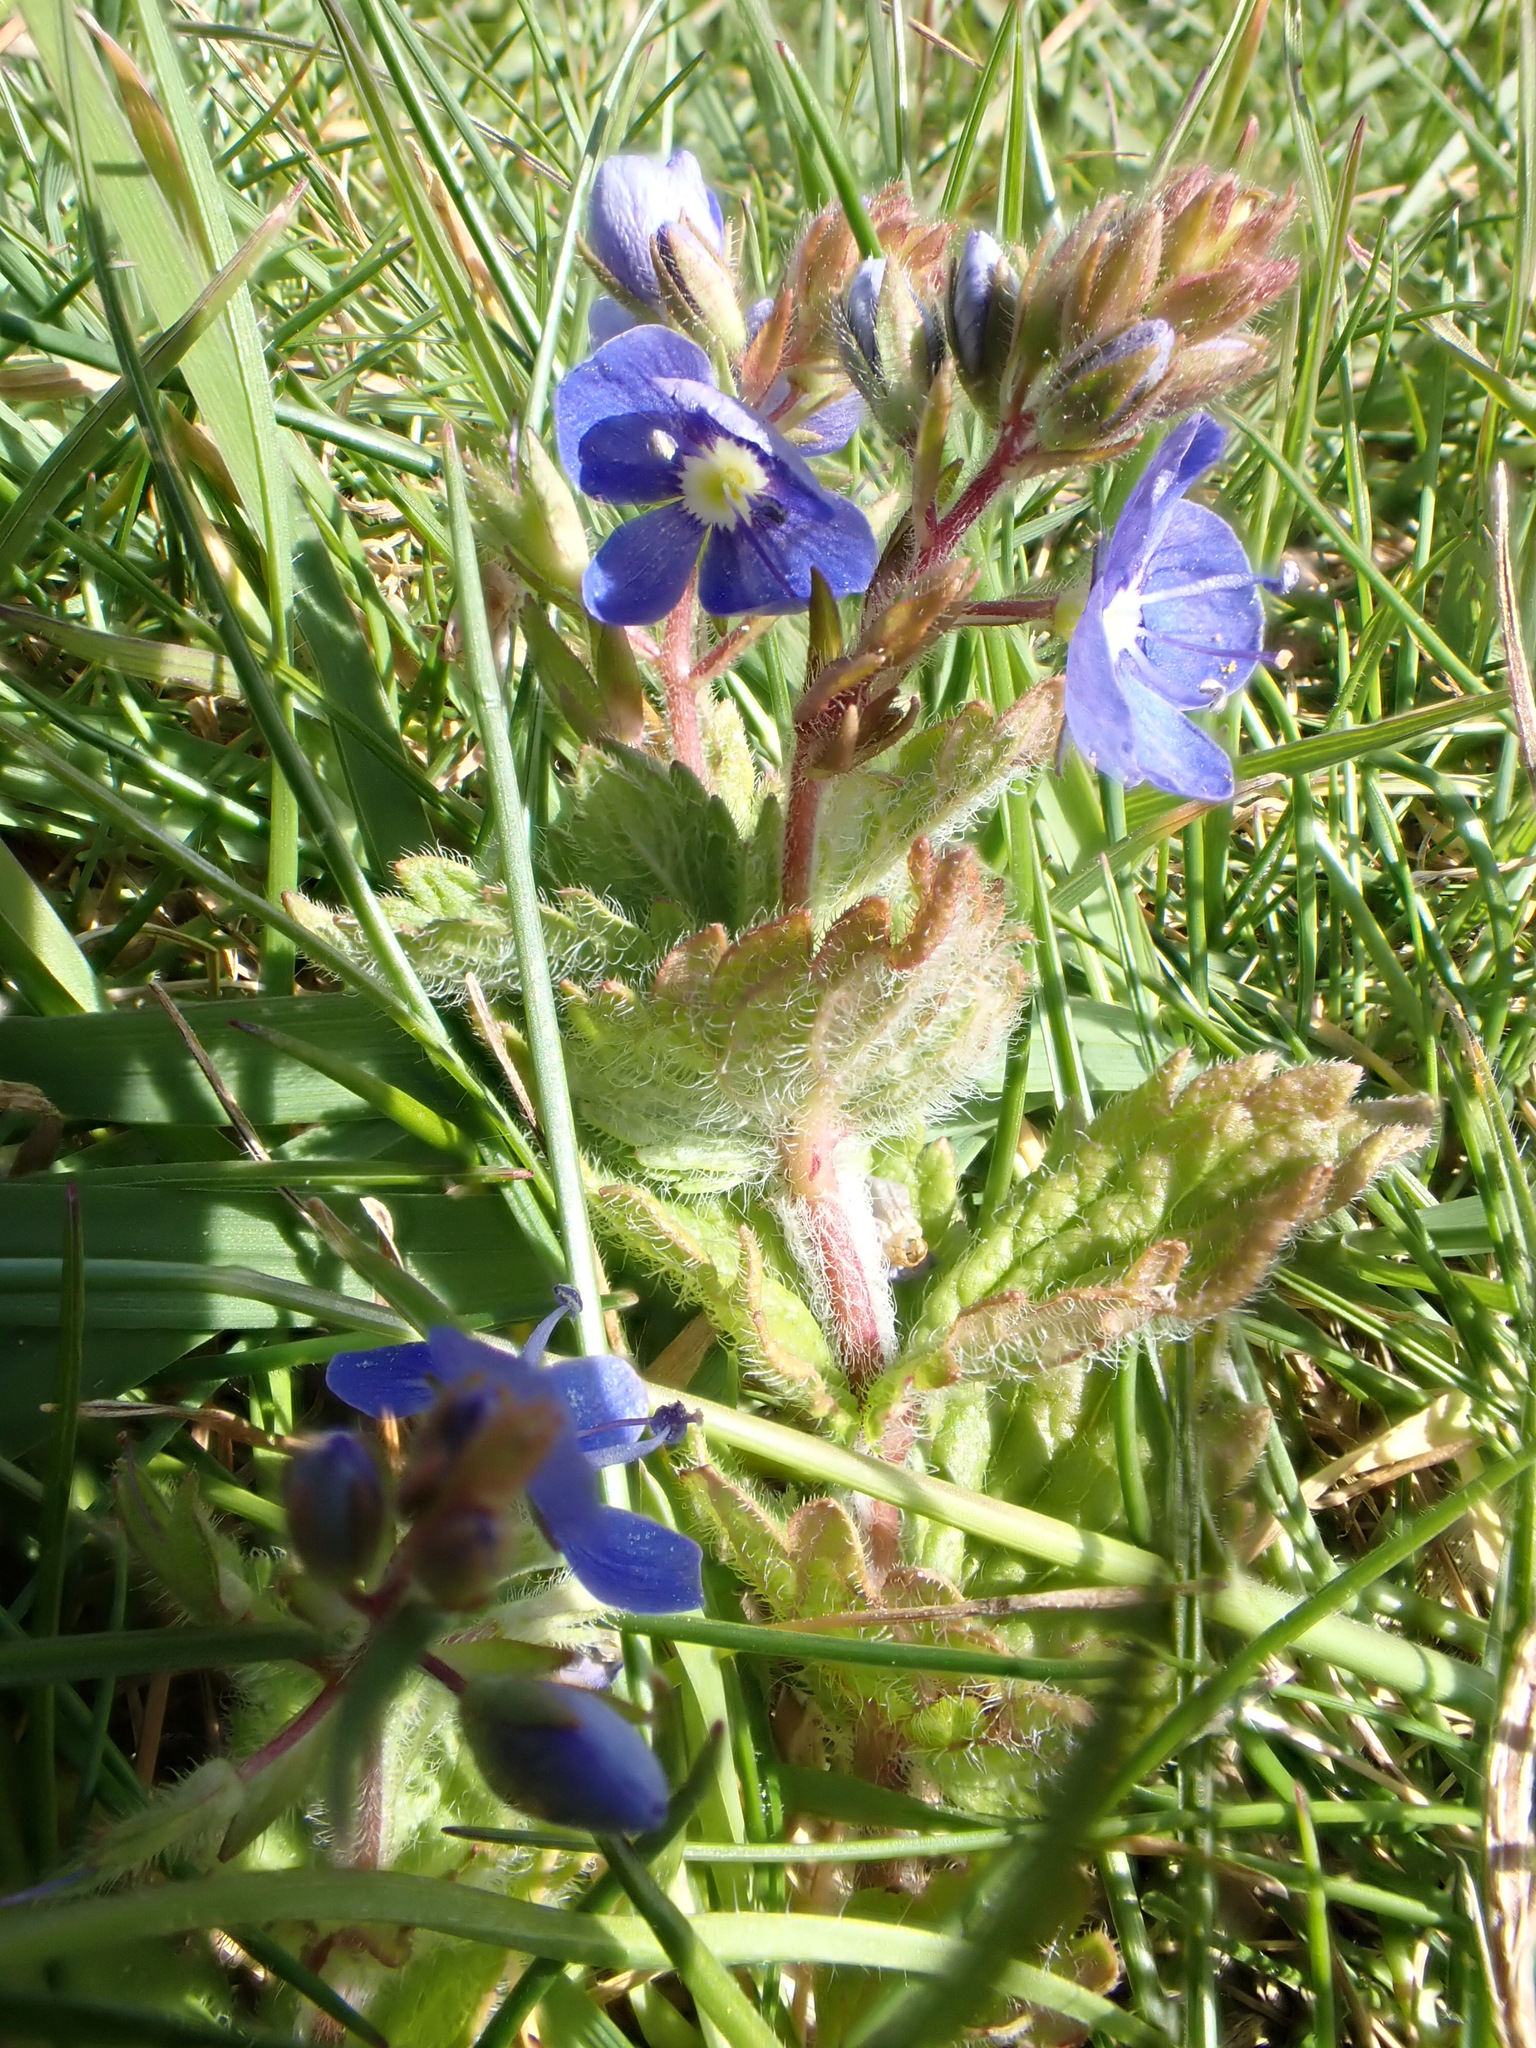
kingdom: Plantae
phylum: Tracheophyta
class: Magnoliopsida
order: Lamiales
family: Plantaginaceae
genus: Veronica
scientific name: Veronica chamaedrys
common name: Germander speedwell
